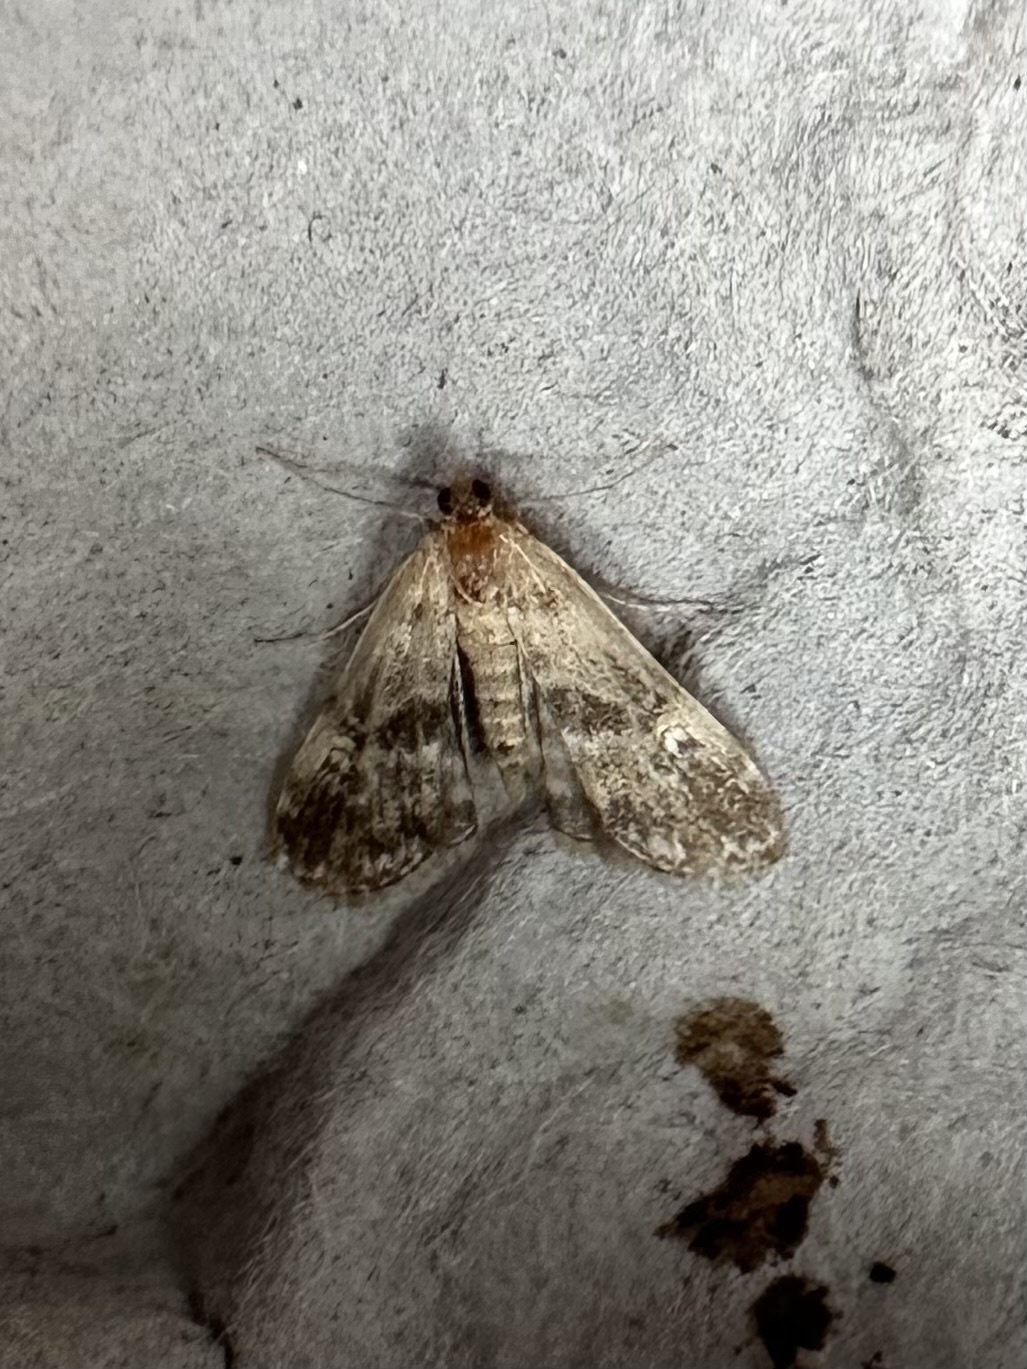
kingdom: Animalia
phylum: Arthropoda
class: Insecta
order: Lepidoptera
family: Crambidae
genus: Elophila
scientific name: Elophila obliteralis
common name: Waterlily leafcutter moth
